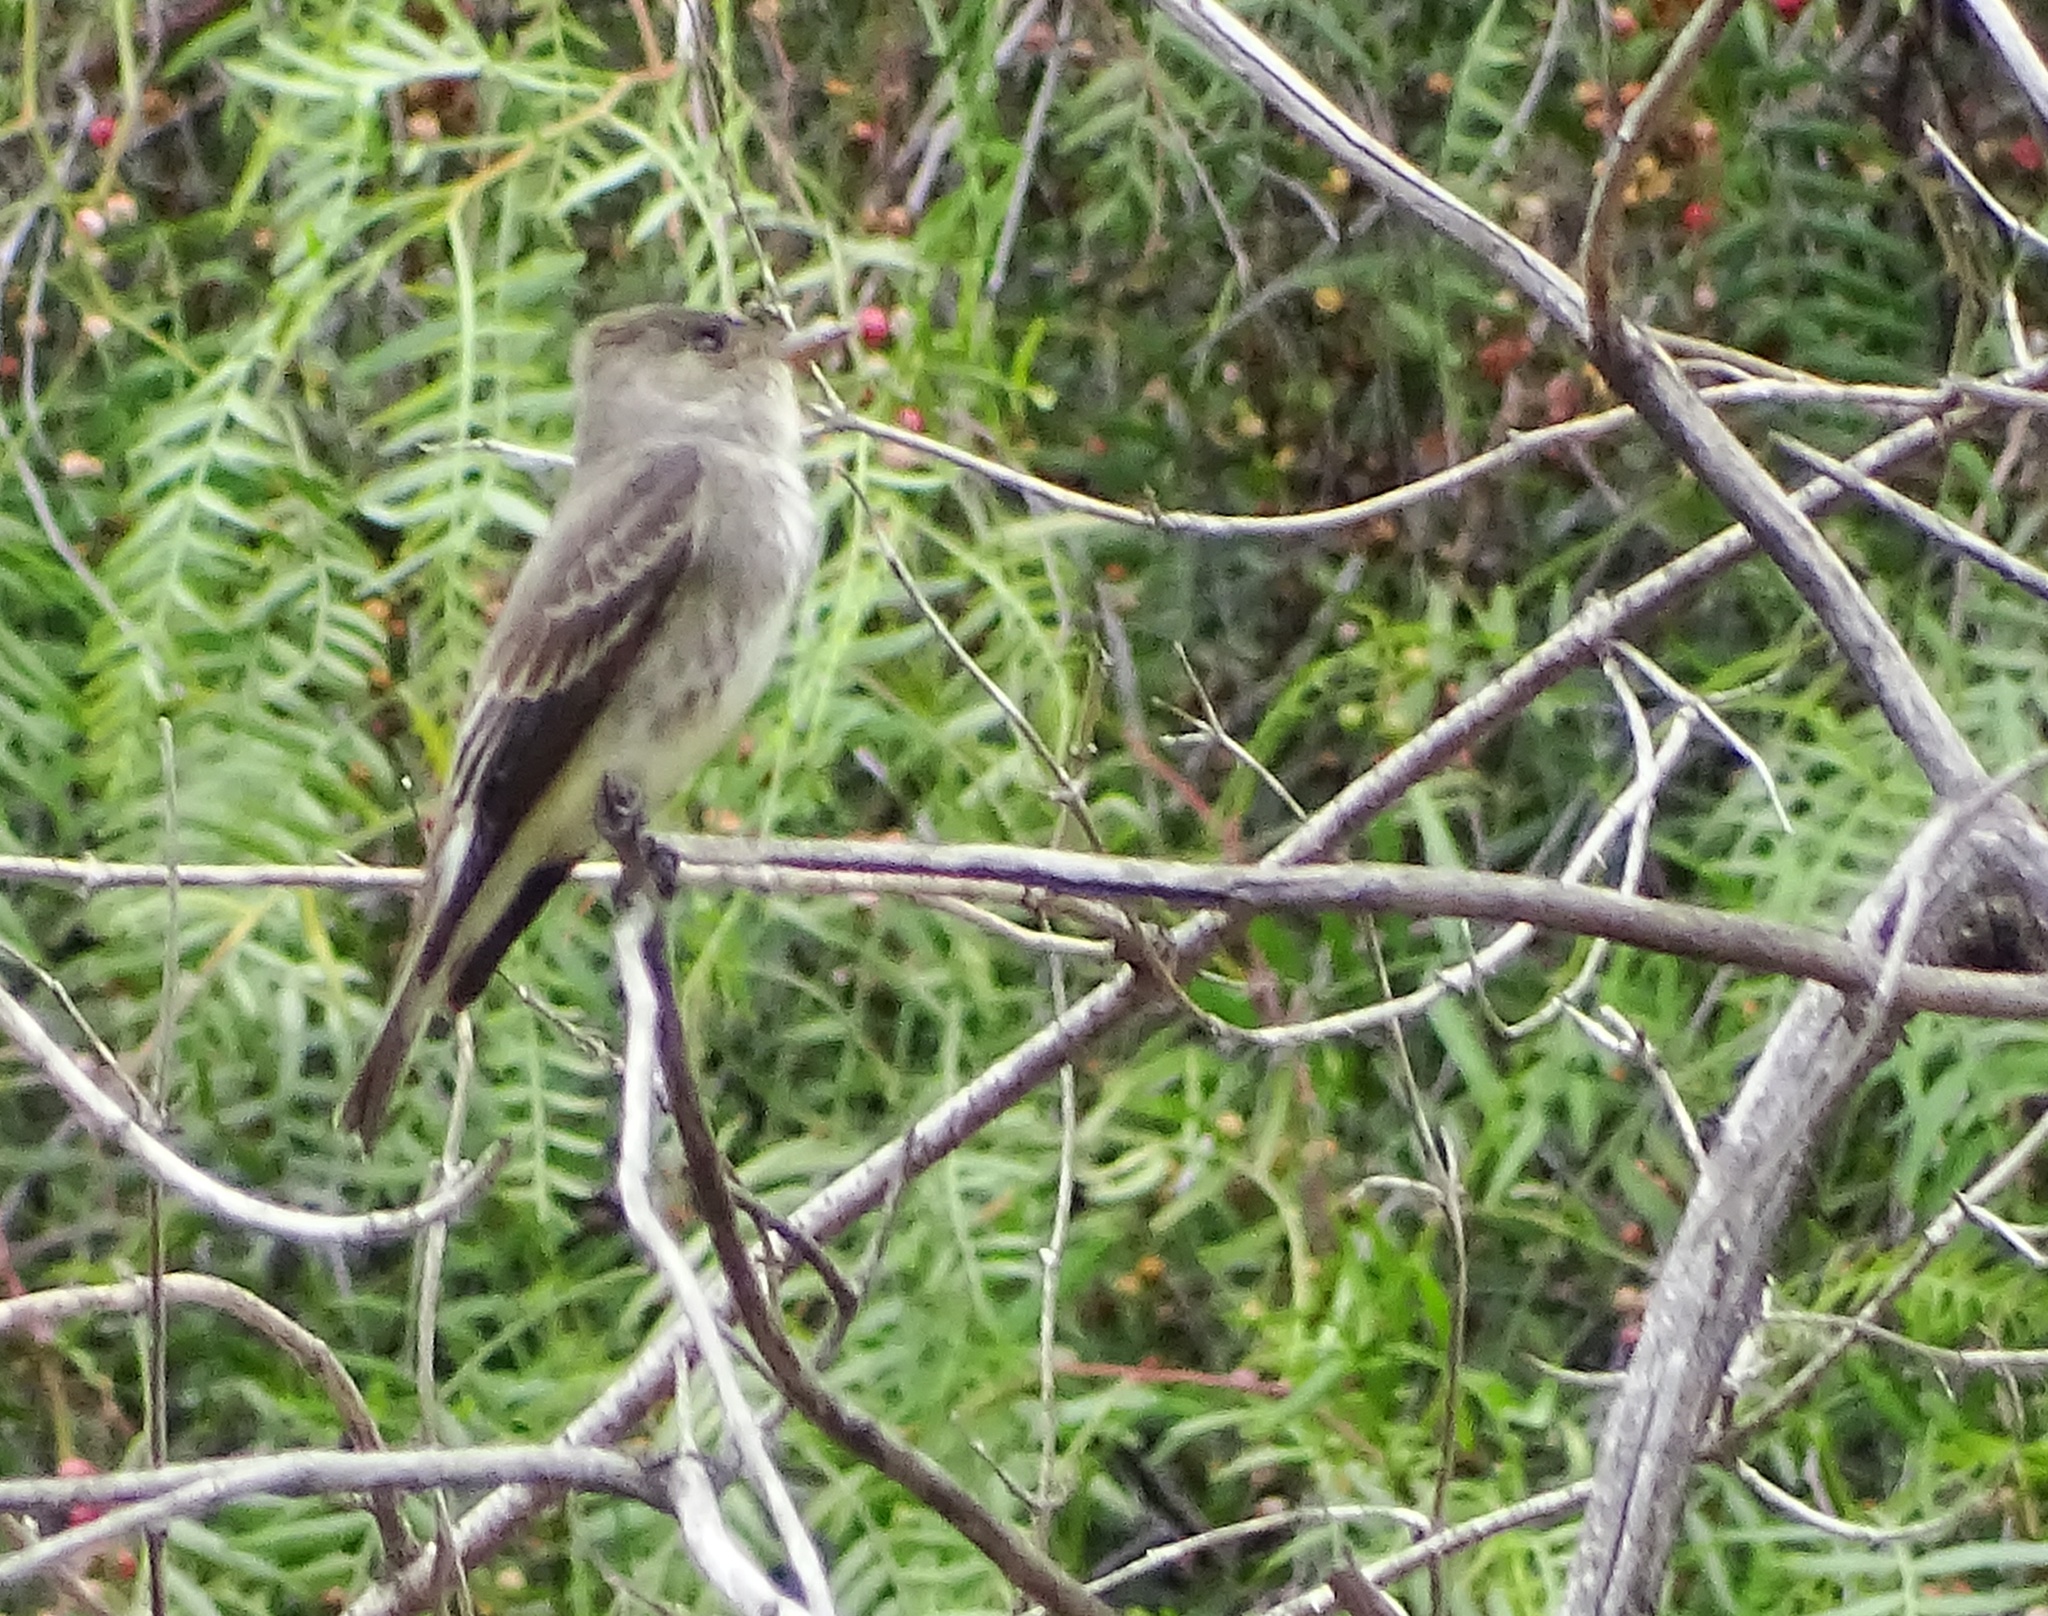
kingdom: Animalia
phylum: Chordata
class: Aves
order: Passeriformes
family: Tyrannidae
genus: Contopus
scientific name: Contopus sordidulus
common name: Western wood-pewee
